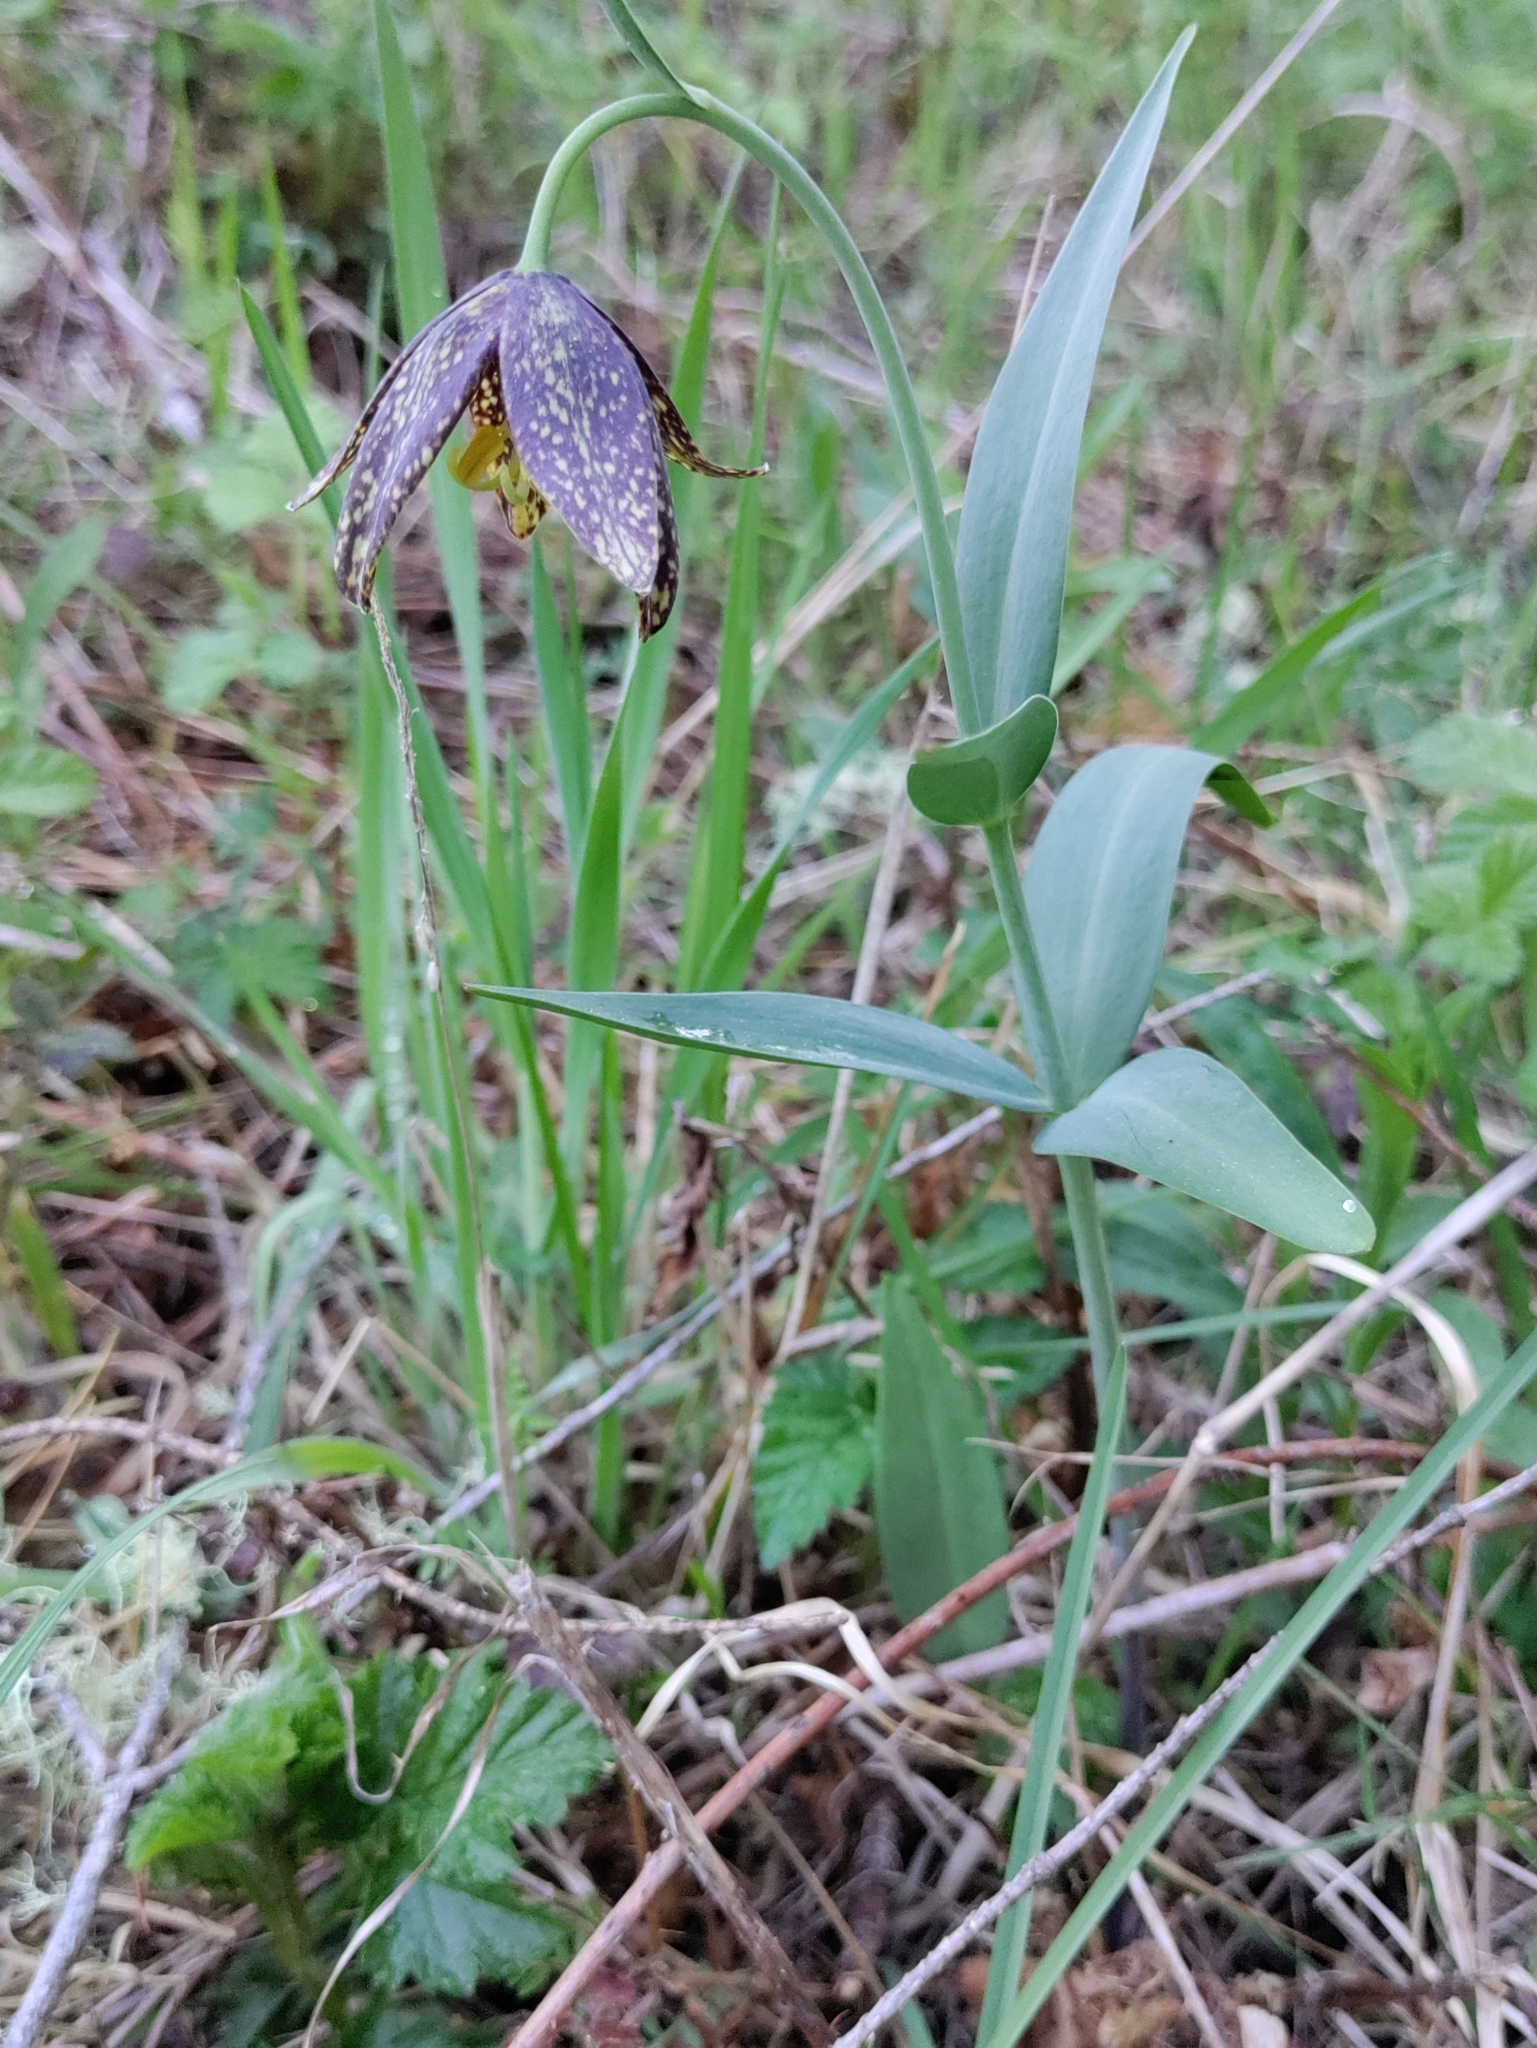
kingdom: Plantae
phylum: Tracheophyta
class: Liliopsida
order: Liliales
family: Liliaceae
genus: Fritillaria
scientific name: Fritillaria affinis
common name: Ojai fritillary
